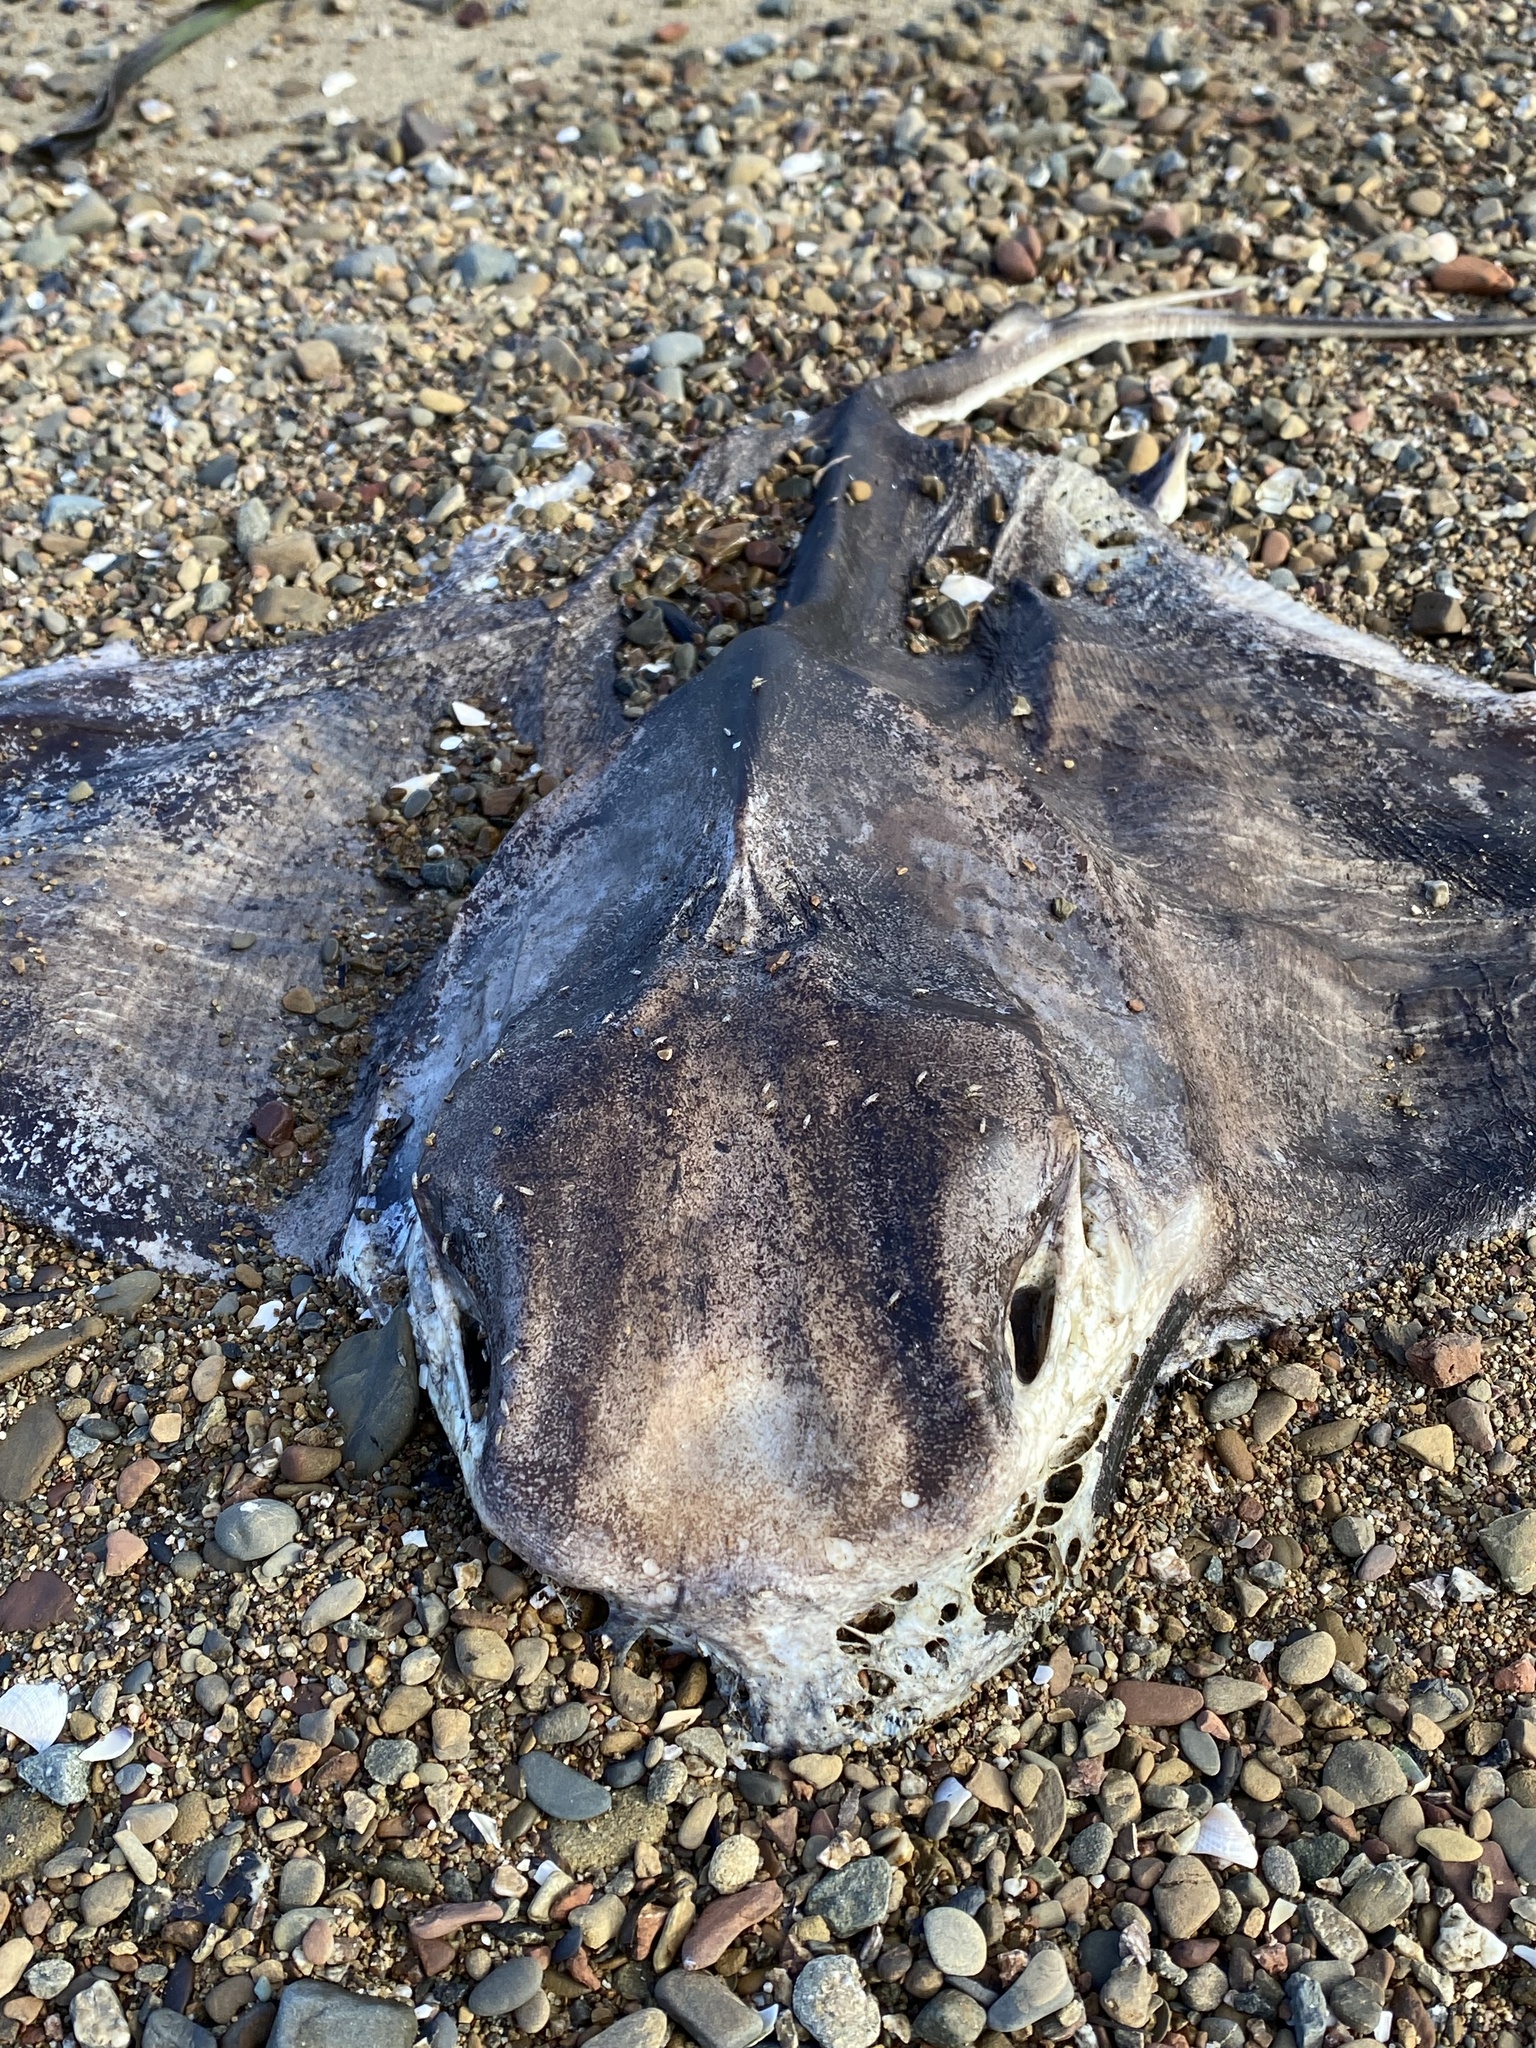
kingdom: Animalia
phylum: Chordata
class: Elasmobranchii
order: Myliobatiformes
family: Myliobatidae
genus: Myliobatis
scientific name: Myliobatis californica
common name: Bat ray
